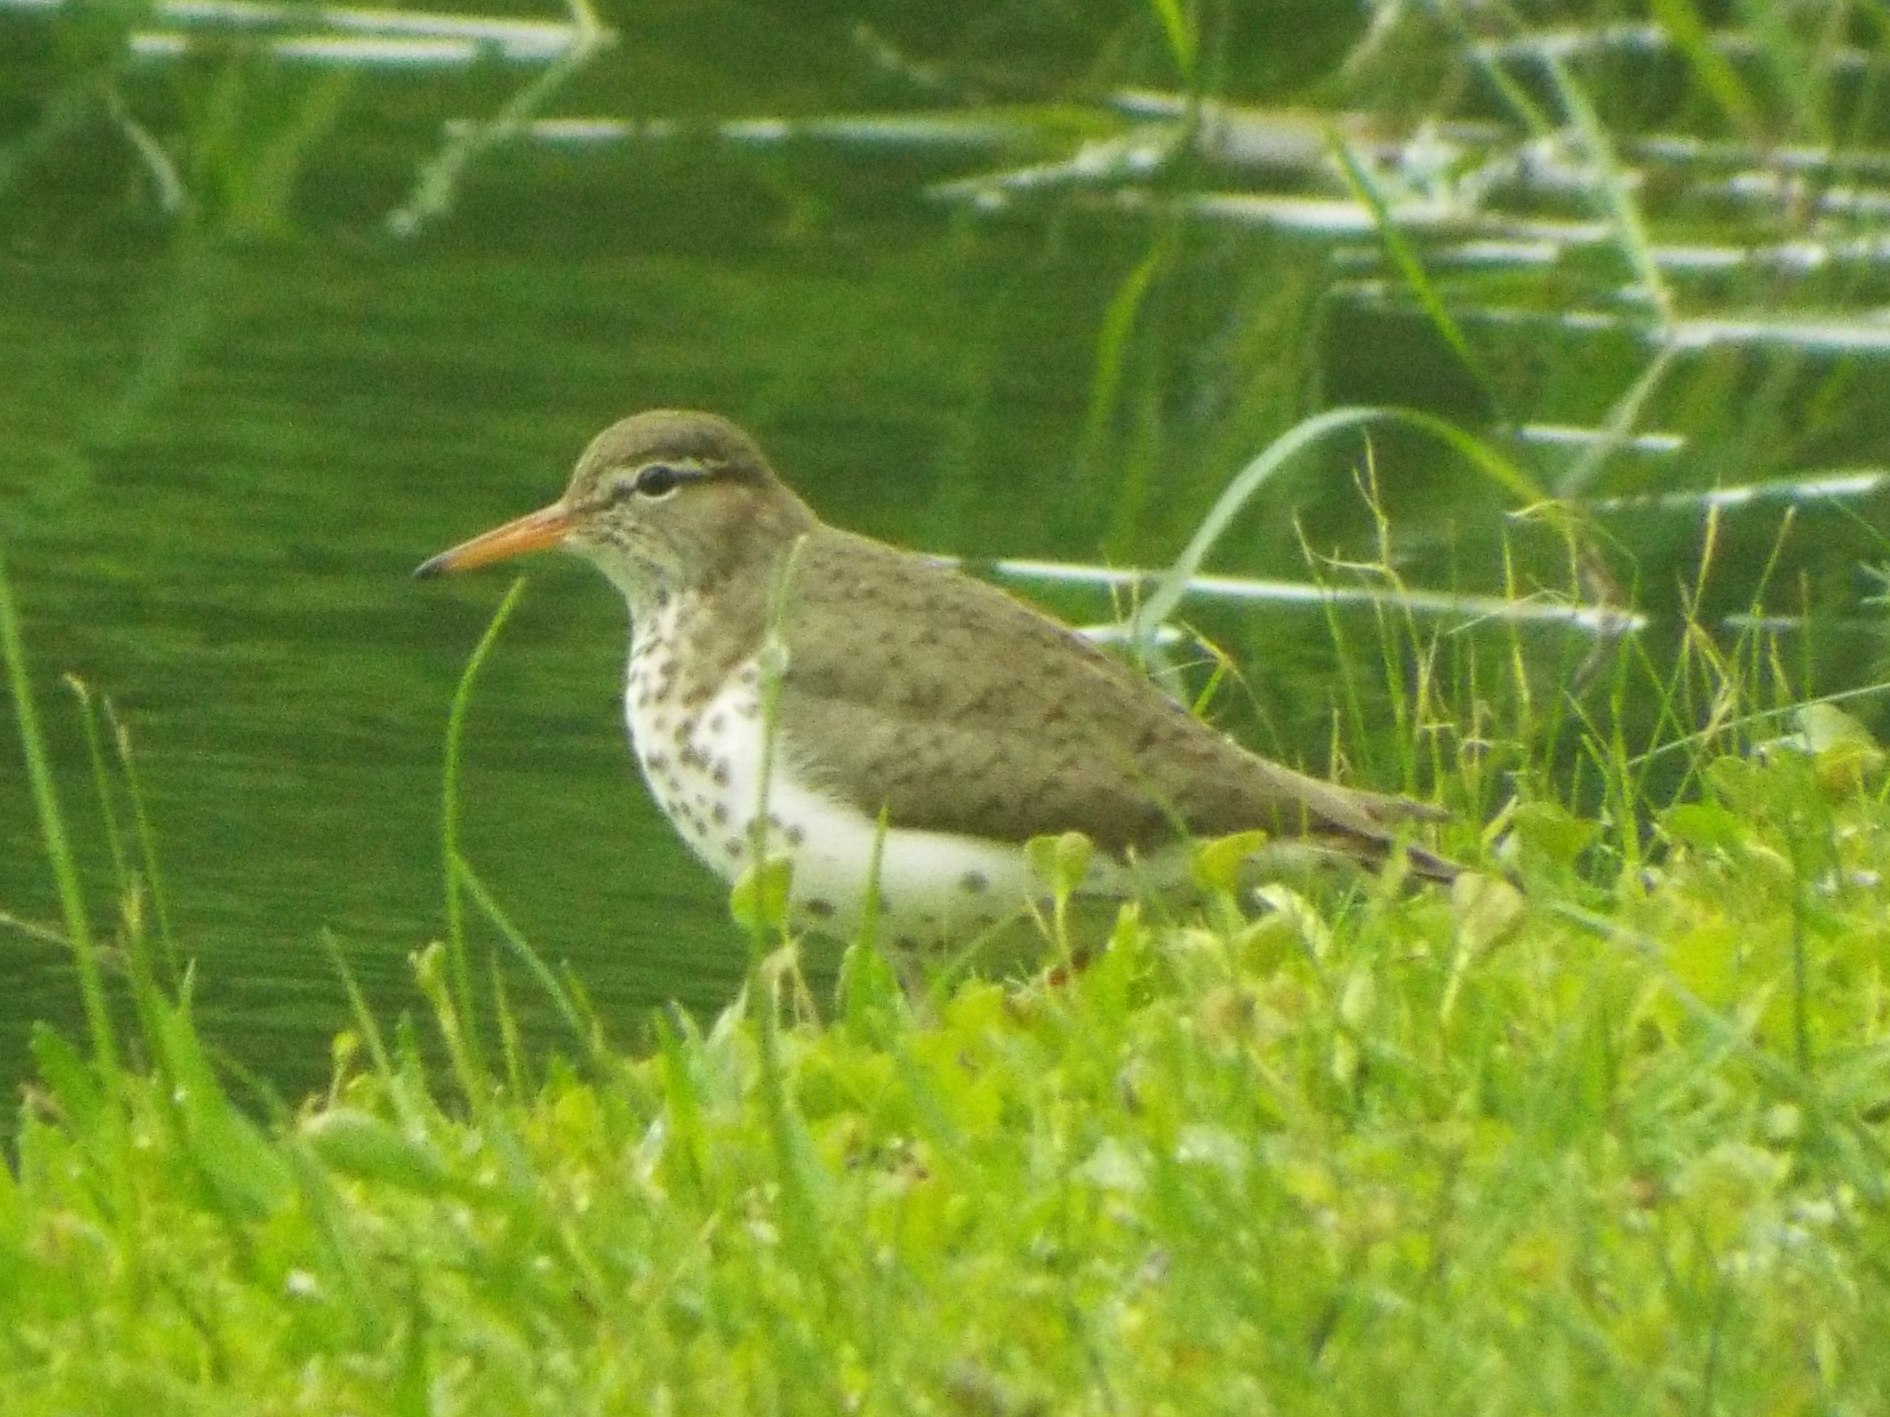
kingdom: Animalia
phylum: Chordata
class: Aves
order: Charadriiformes
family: Scolopacidae
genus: Actitis
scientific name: Actitis macularius
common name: Spotted sandpiper
